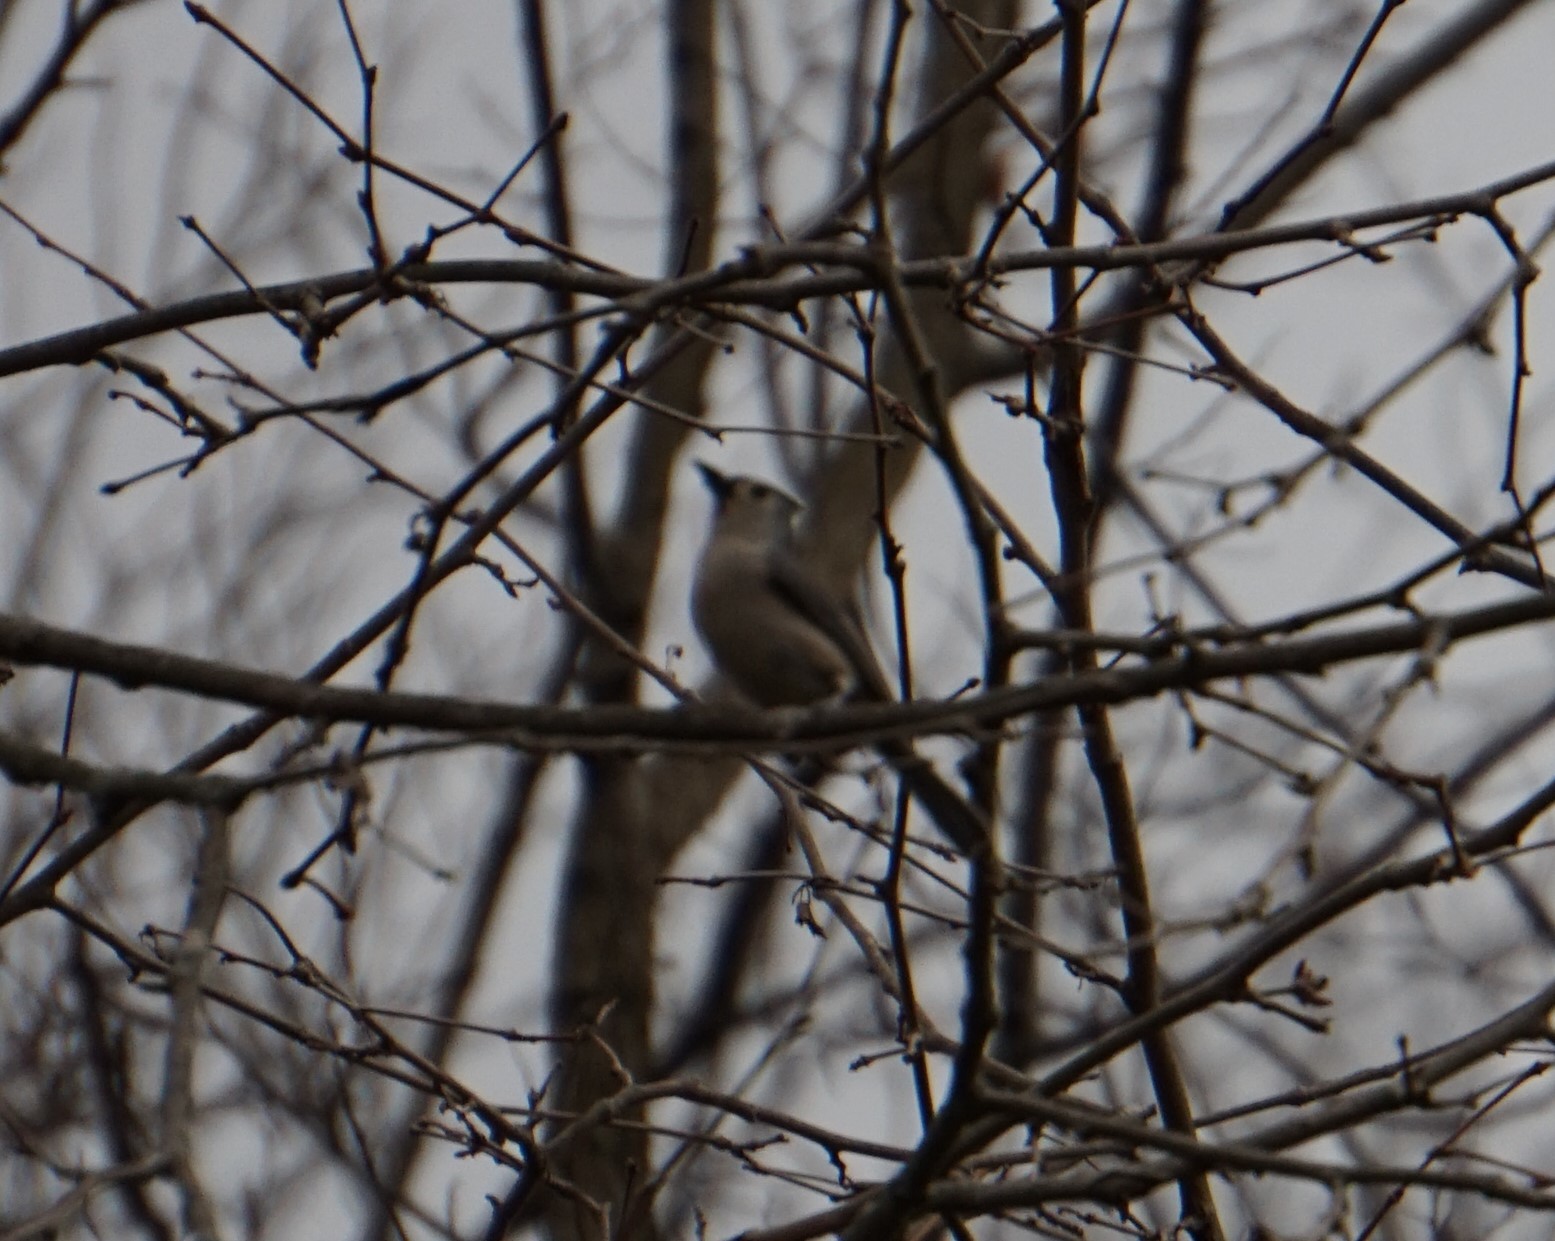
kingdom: Animalia
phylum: Chordata
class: Aves
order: Passeriformes
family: Paridae
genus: Baeolophus
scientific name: Baeolophus bicolor
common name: Tufted titmouse
